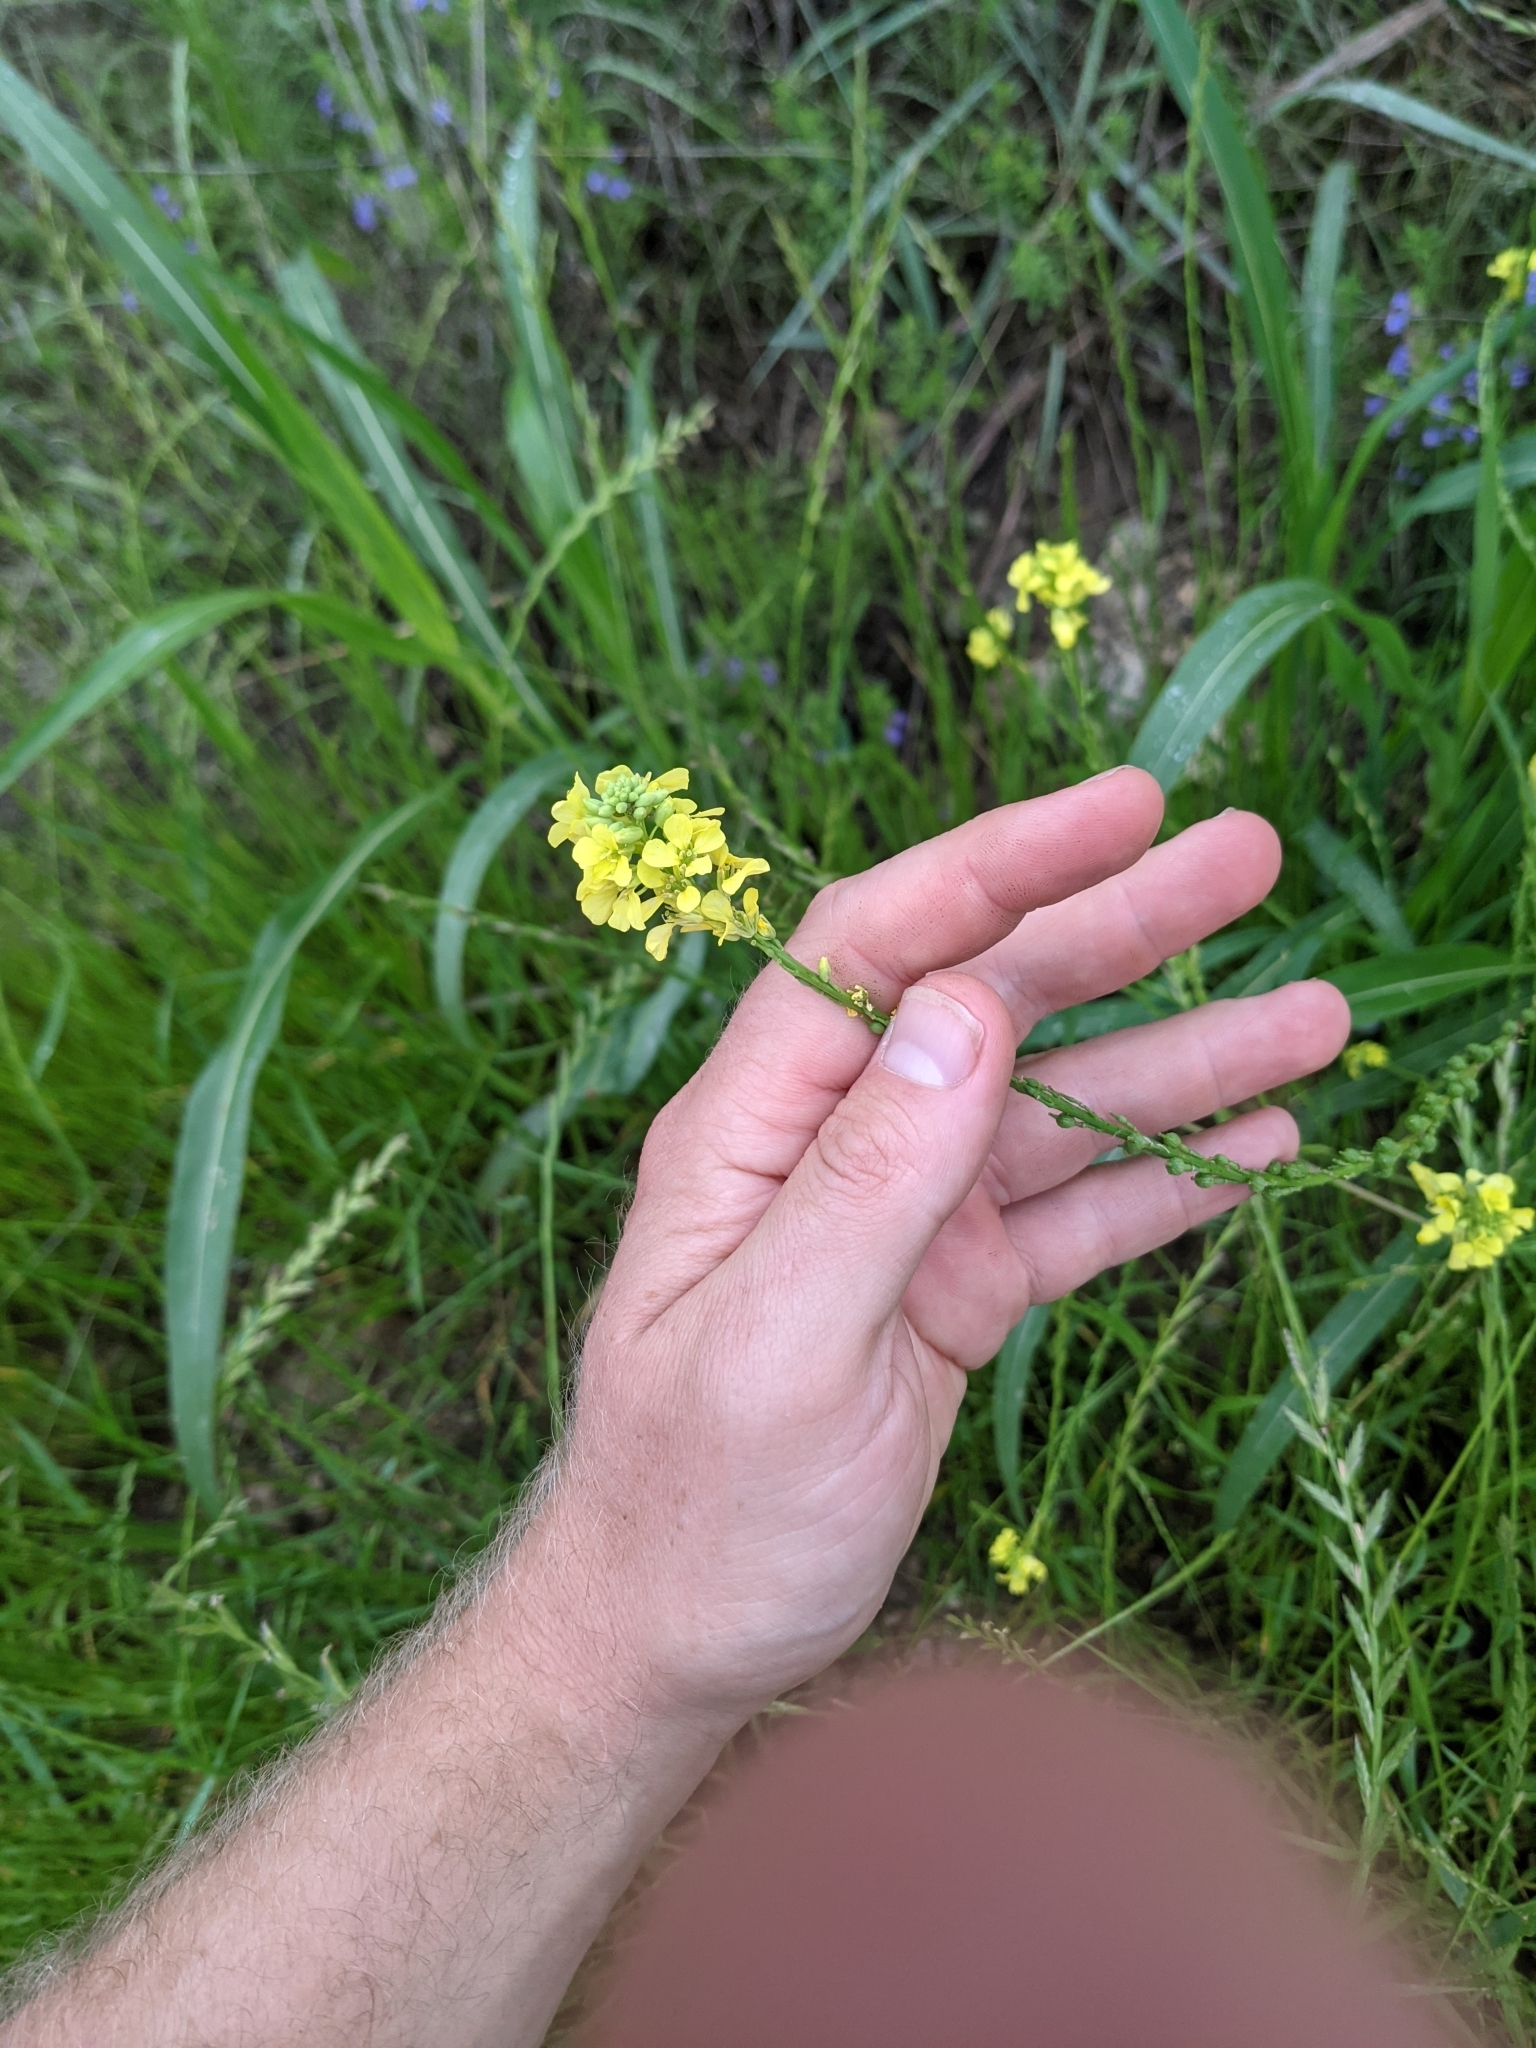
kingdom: Plantae
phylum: Tracheophyta
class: Magnoliopsida
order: Brassicales
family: Brassicaceae
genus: Rapistrum
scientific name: Rapistrum rugosum
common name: Annual bastardcabbage
